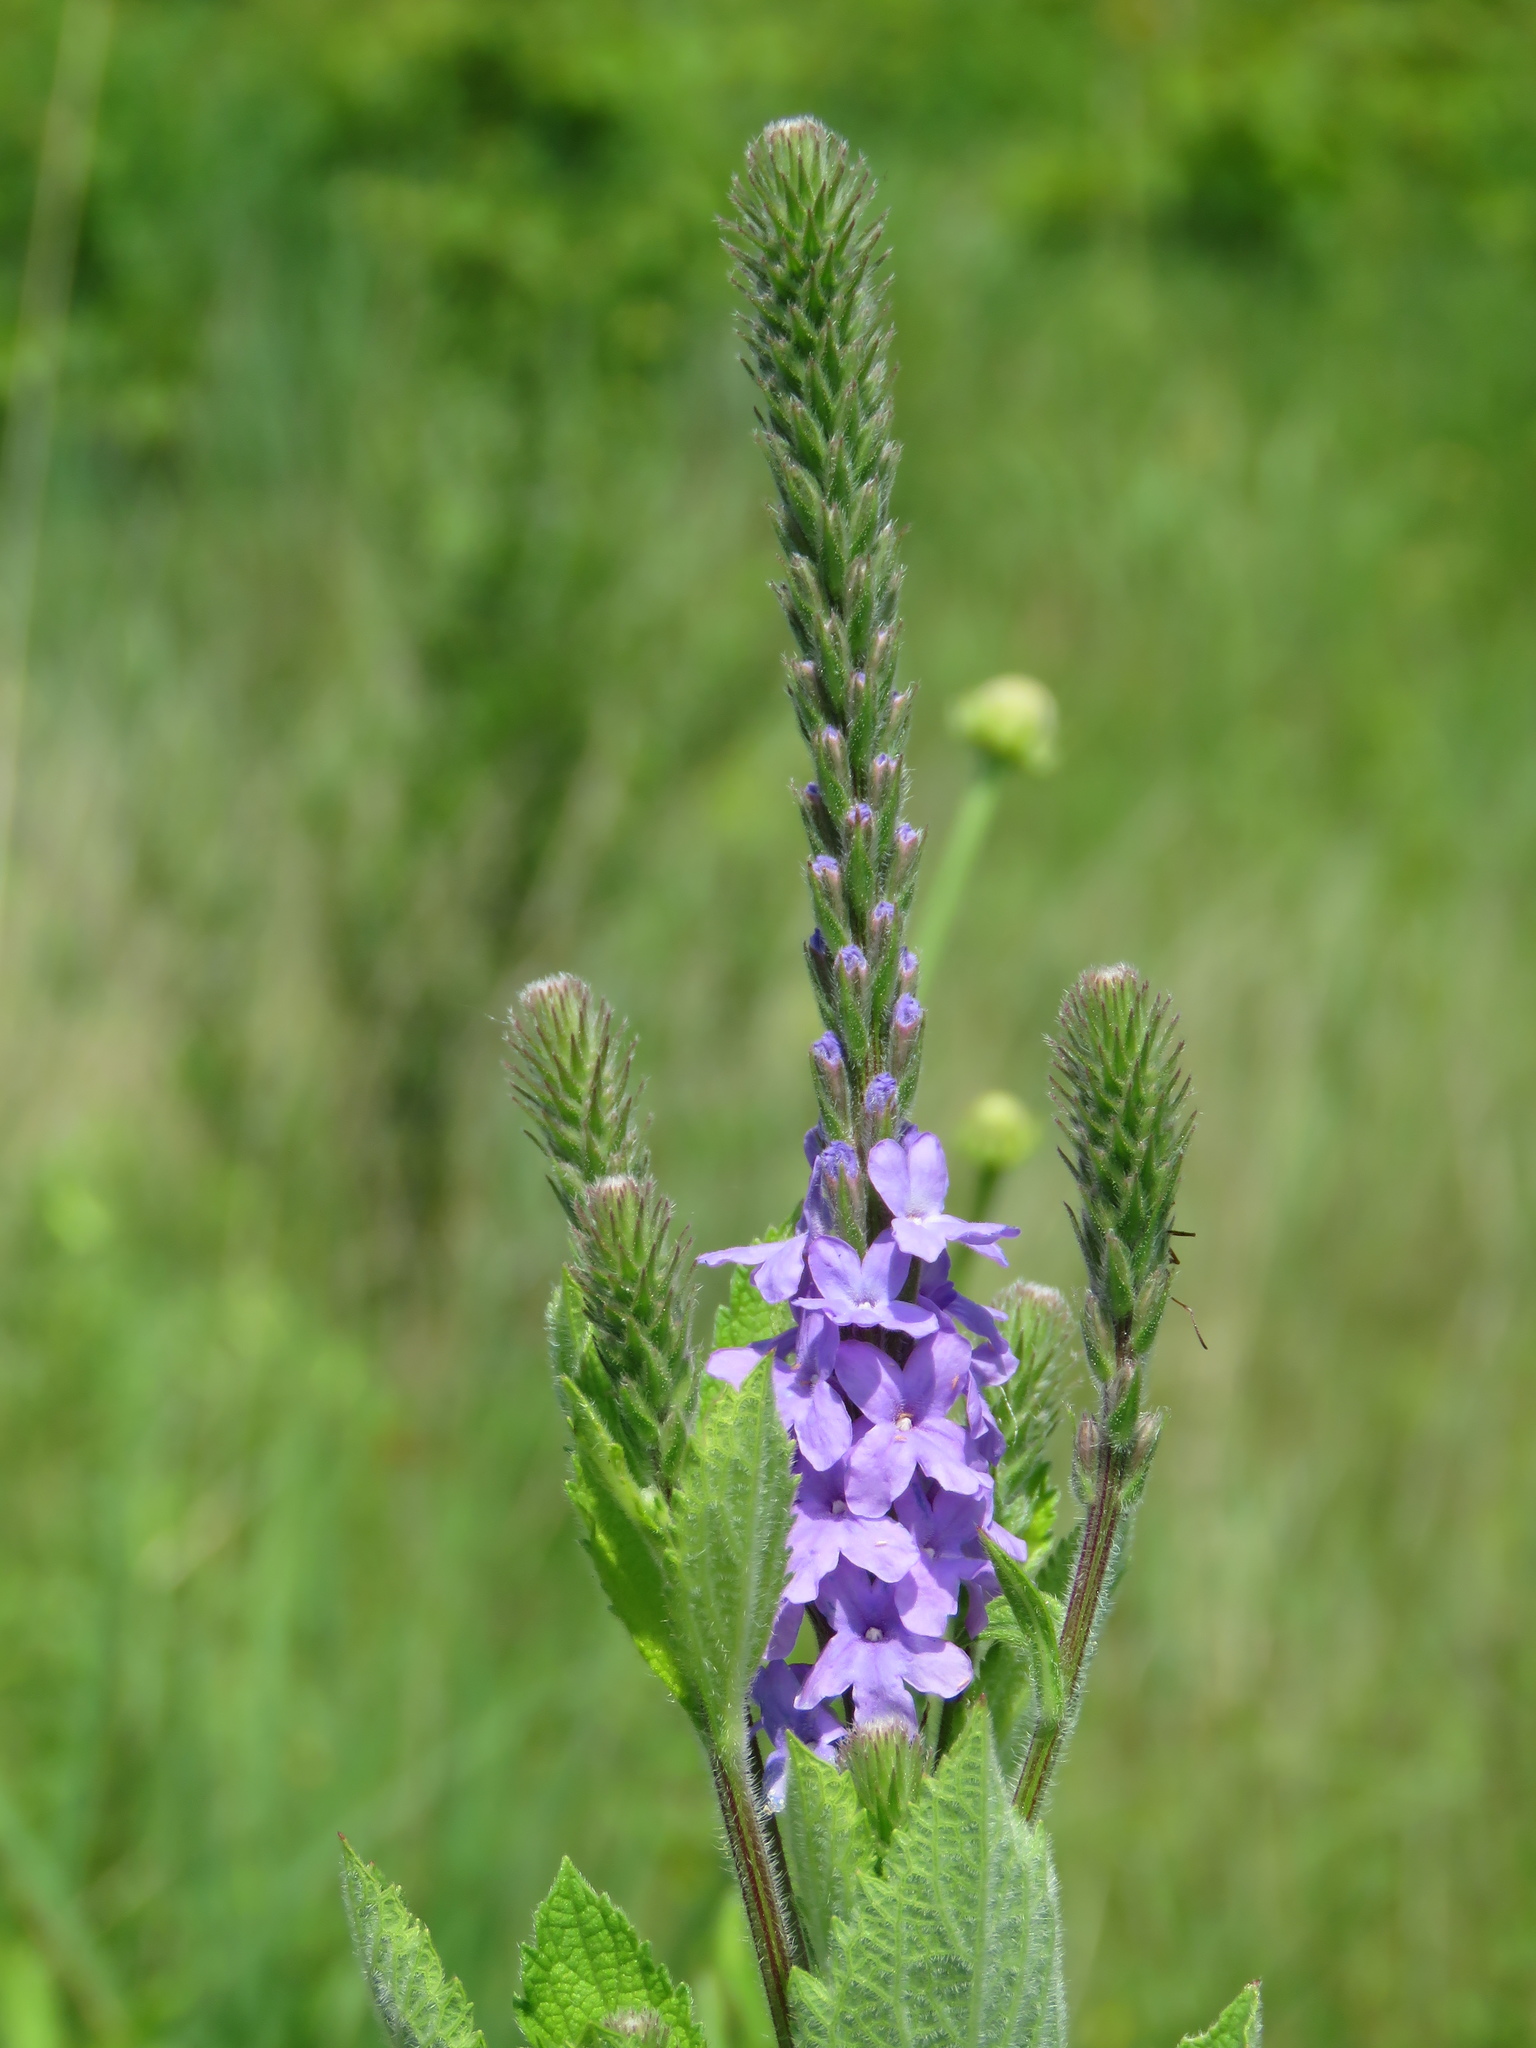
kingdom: Plantae
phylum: Tracheophyta
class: Magnoliopsida
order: Lamiales
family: Verbenaceae
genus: Verbena
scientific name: Verbena stricta
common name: Hoary vervain
